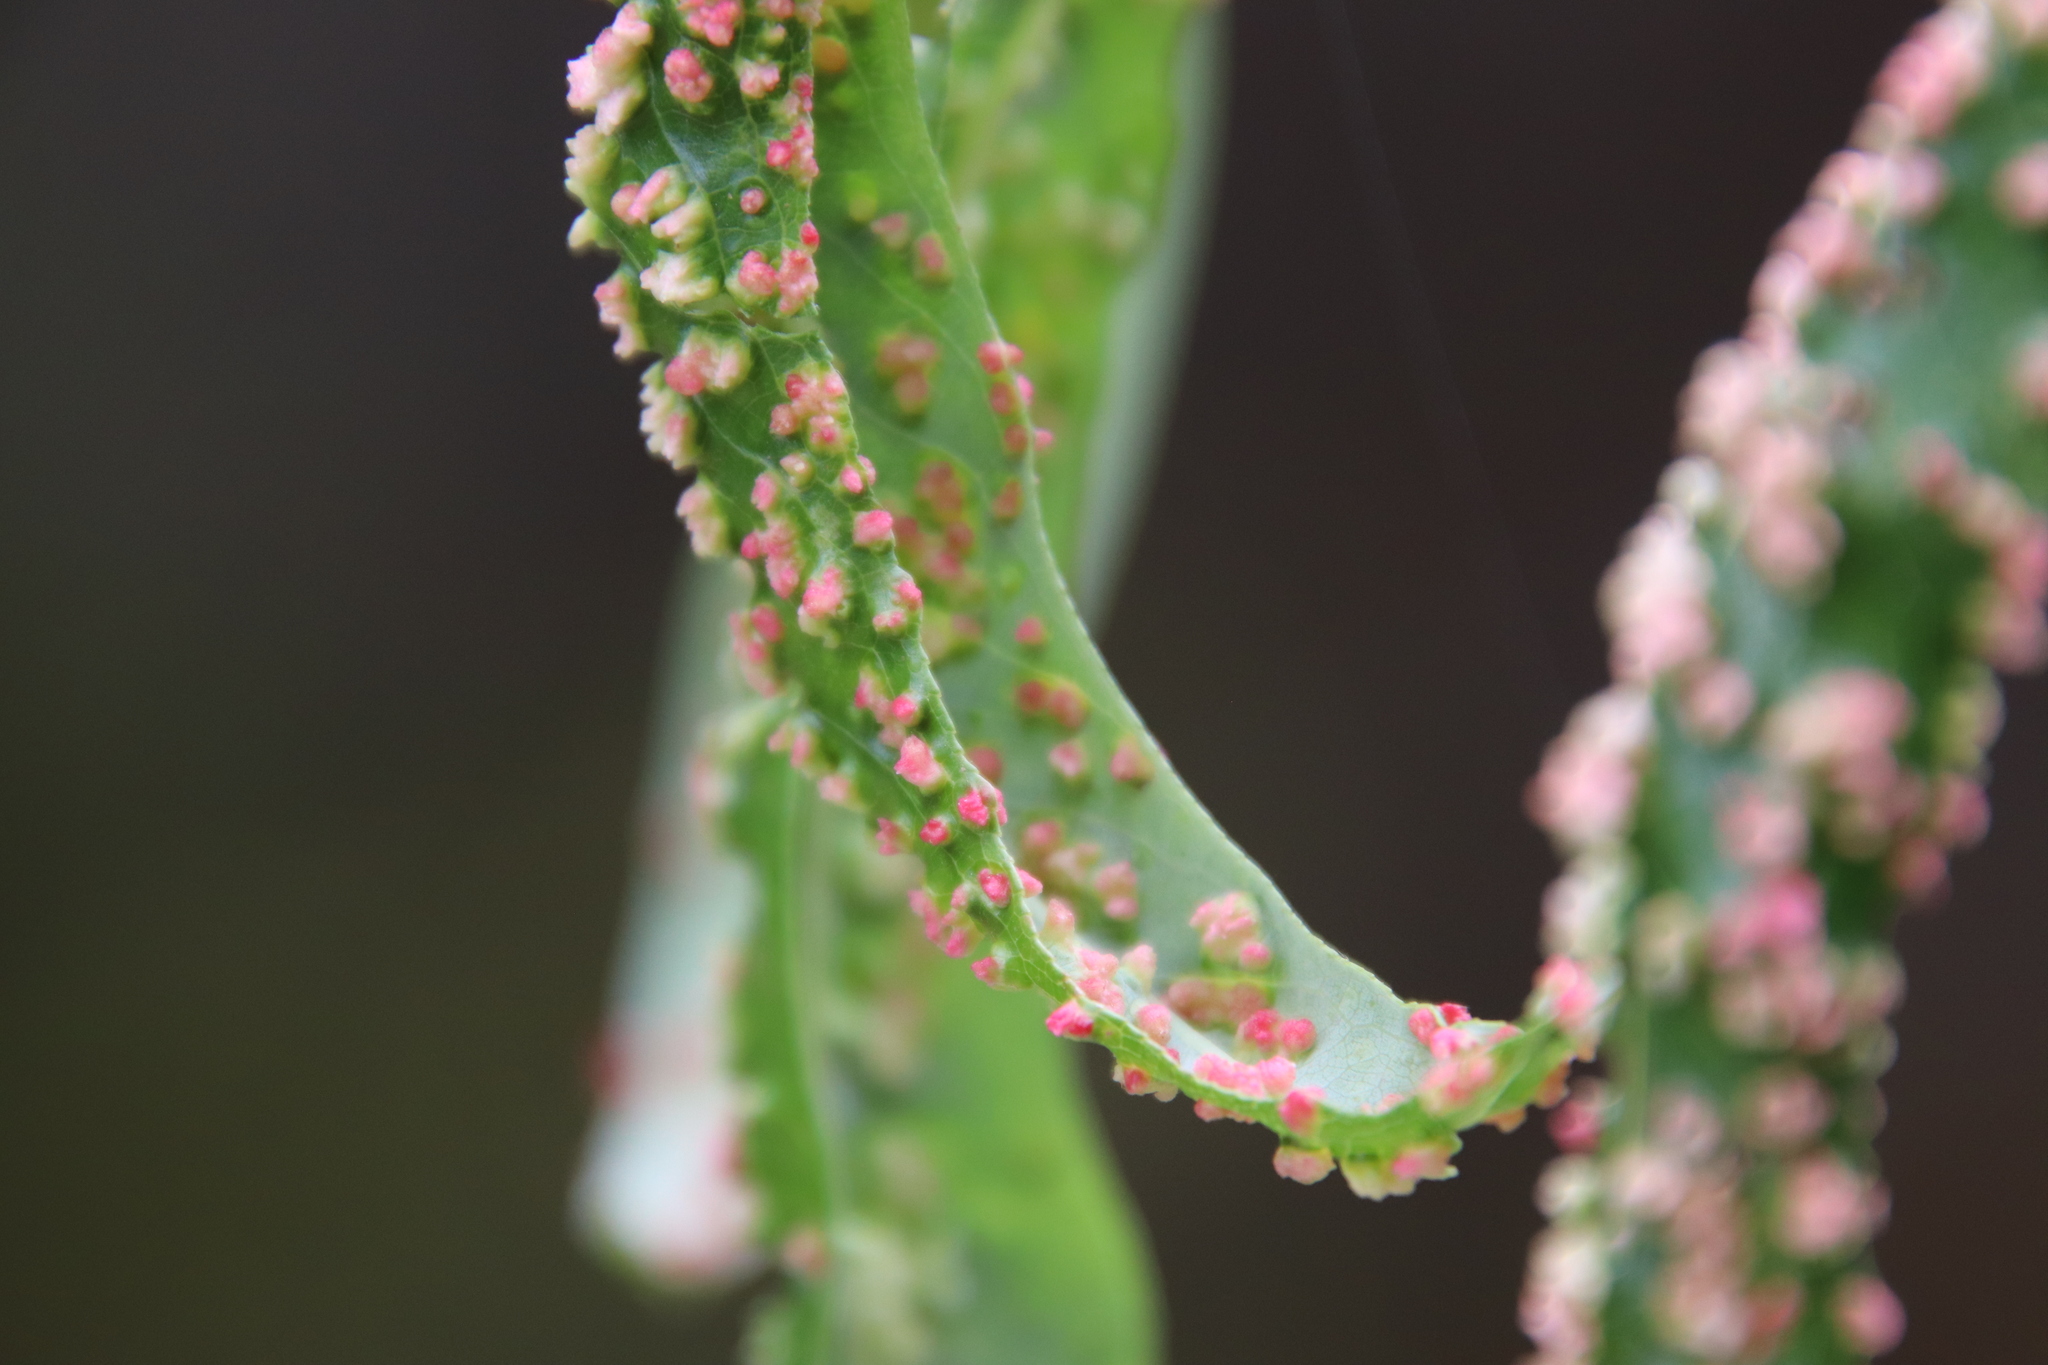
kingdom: Animalia
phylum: Arthropoda
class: Arachnida
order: Trombidiformes
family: Eriophyidae
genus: Aculus
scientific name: Aculus tetanothrix
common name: Willow bead gall mite
